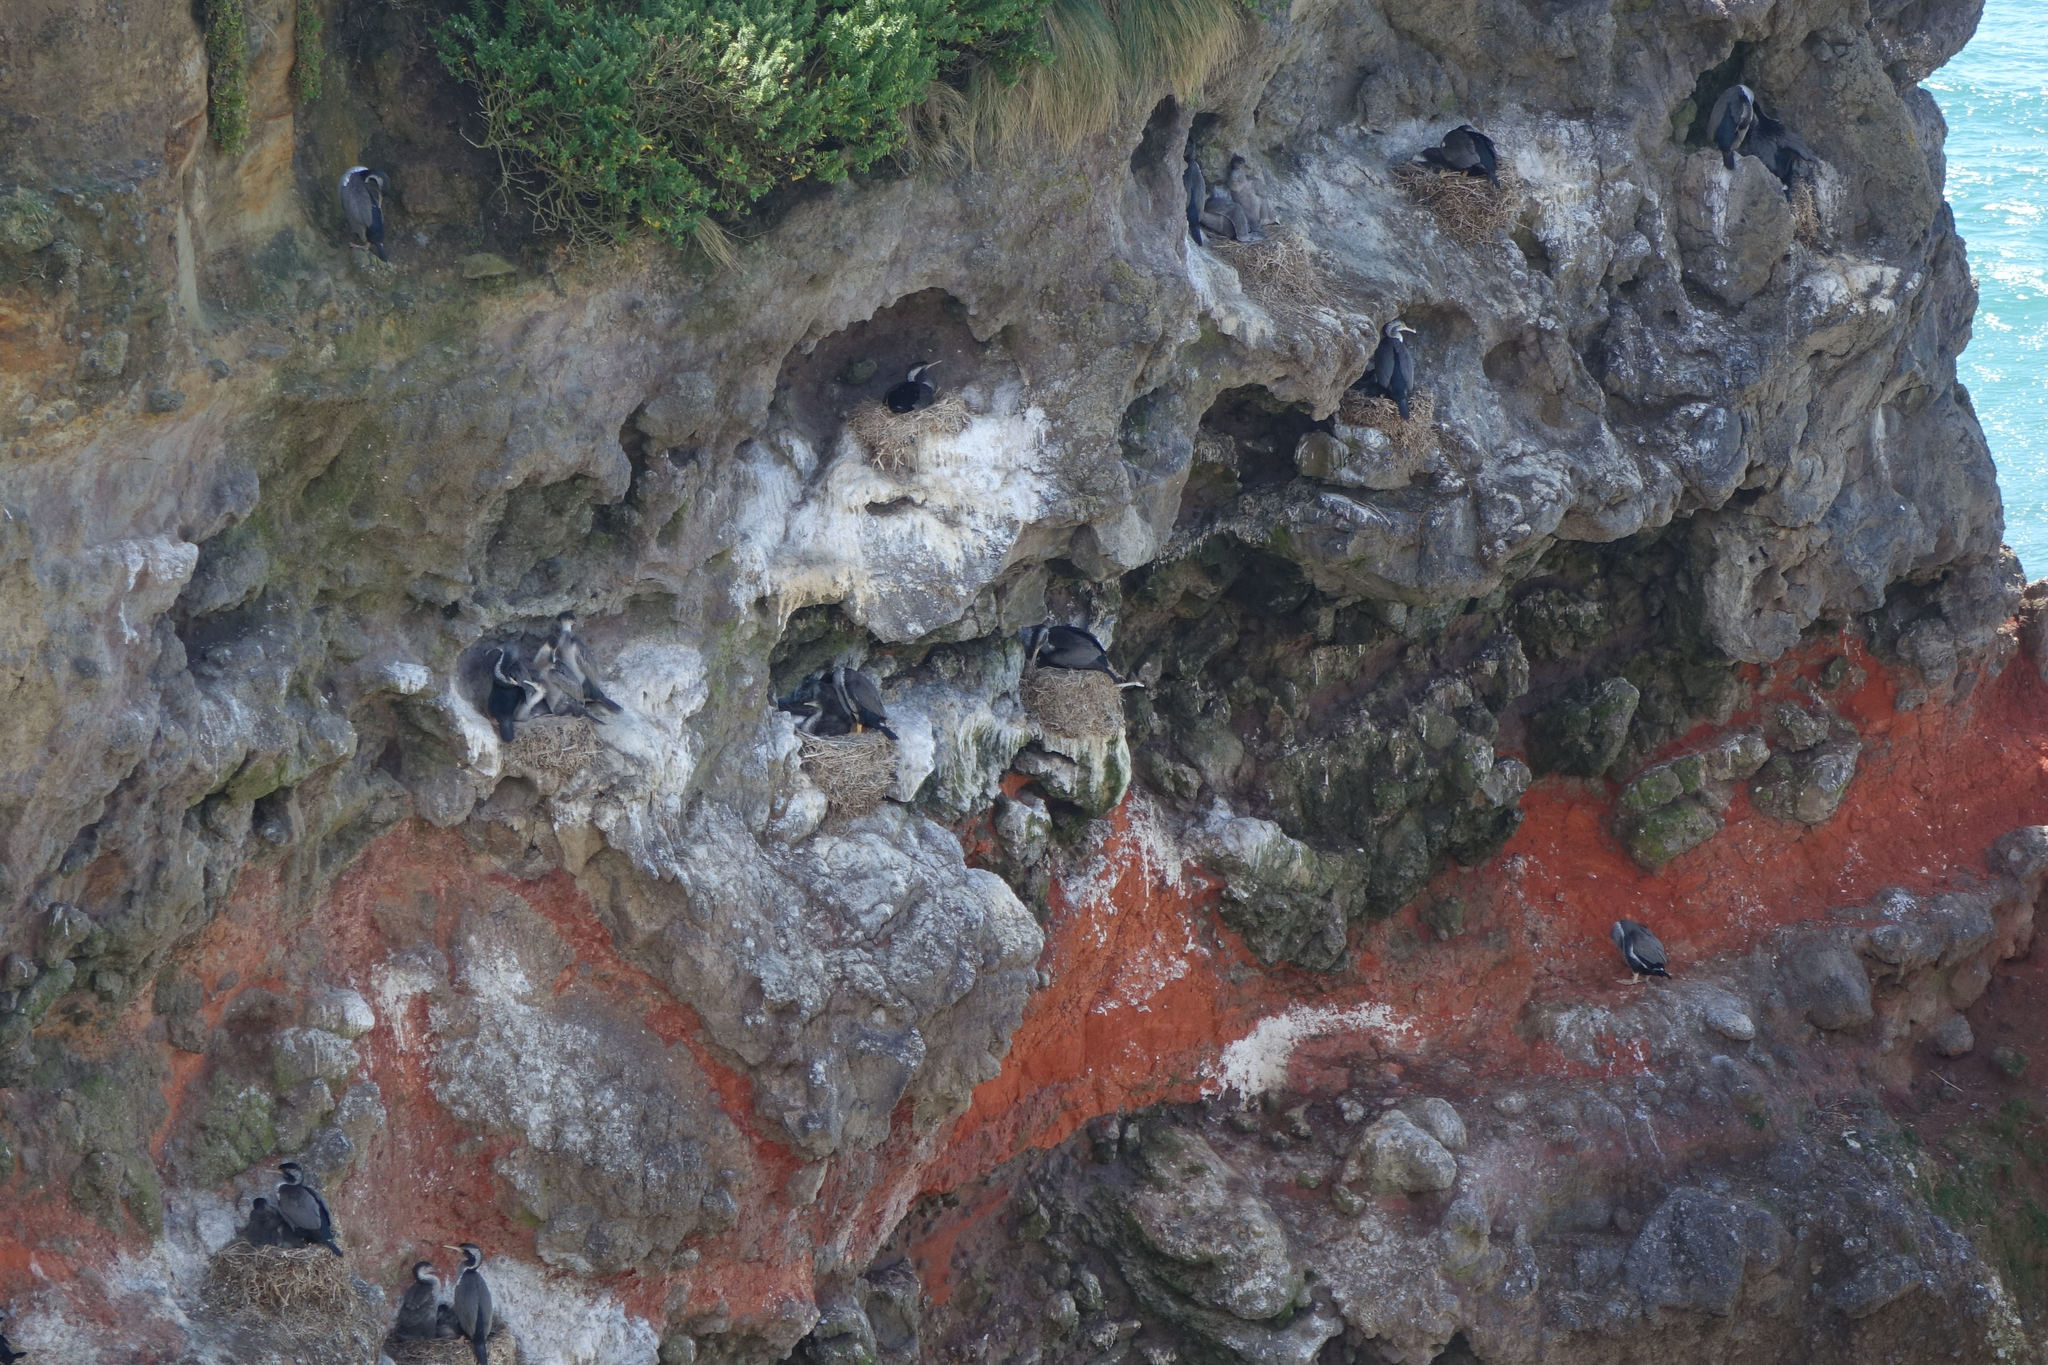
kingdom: Animalia
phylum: Chordata
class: Aves
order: Suliformes
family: Phalacrocoracidae
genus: Phalacrocorax
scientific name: Phalacrocorax punctatus
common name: Spotted shag
